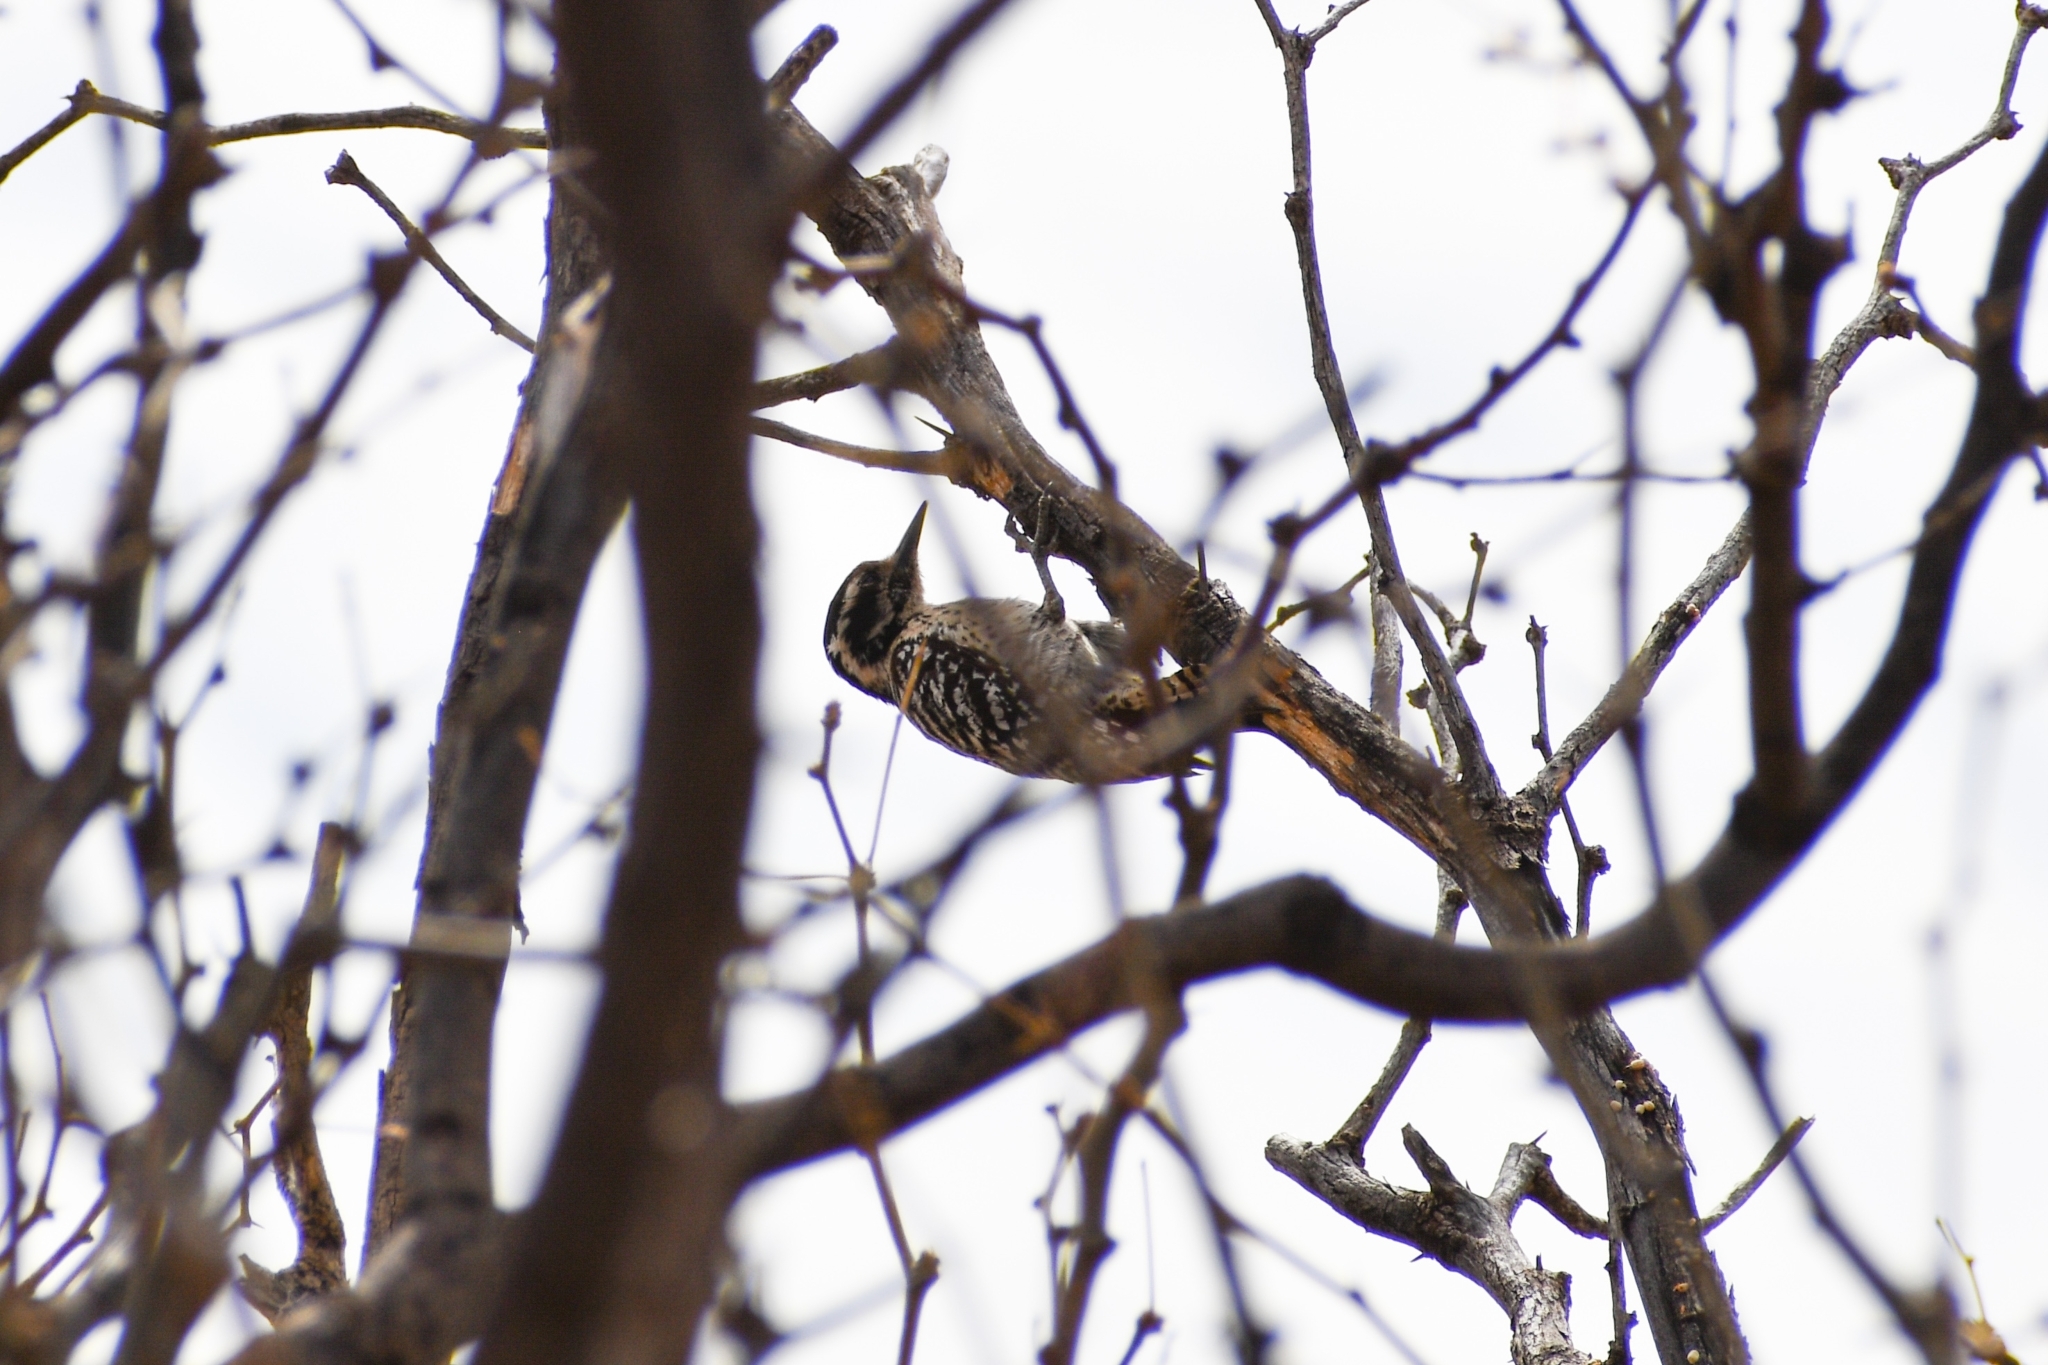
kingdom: Animalia
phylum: Chordata
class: Aves
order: Piciformes
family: Picidae
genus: Dryobates
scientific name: Dryobates scalaris
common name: Ladder-backed woodpecker
